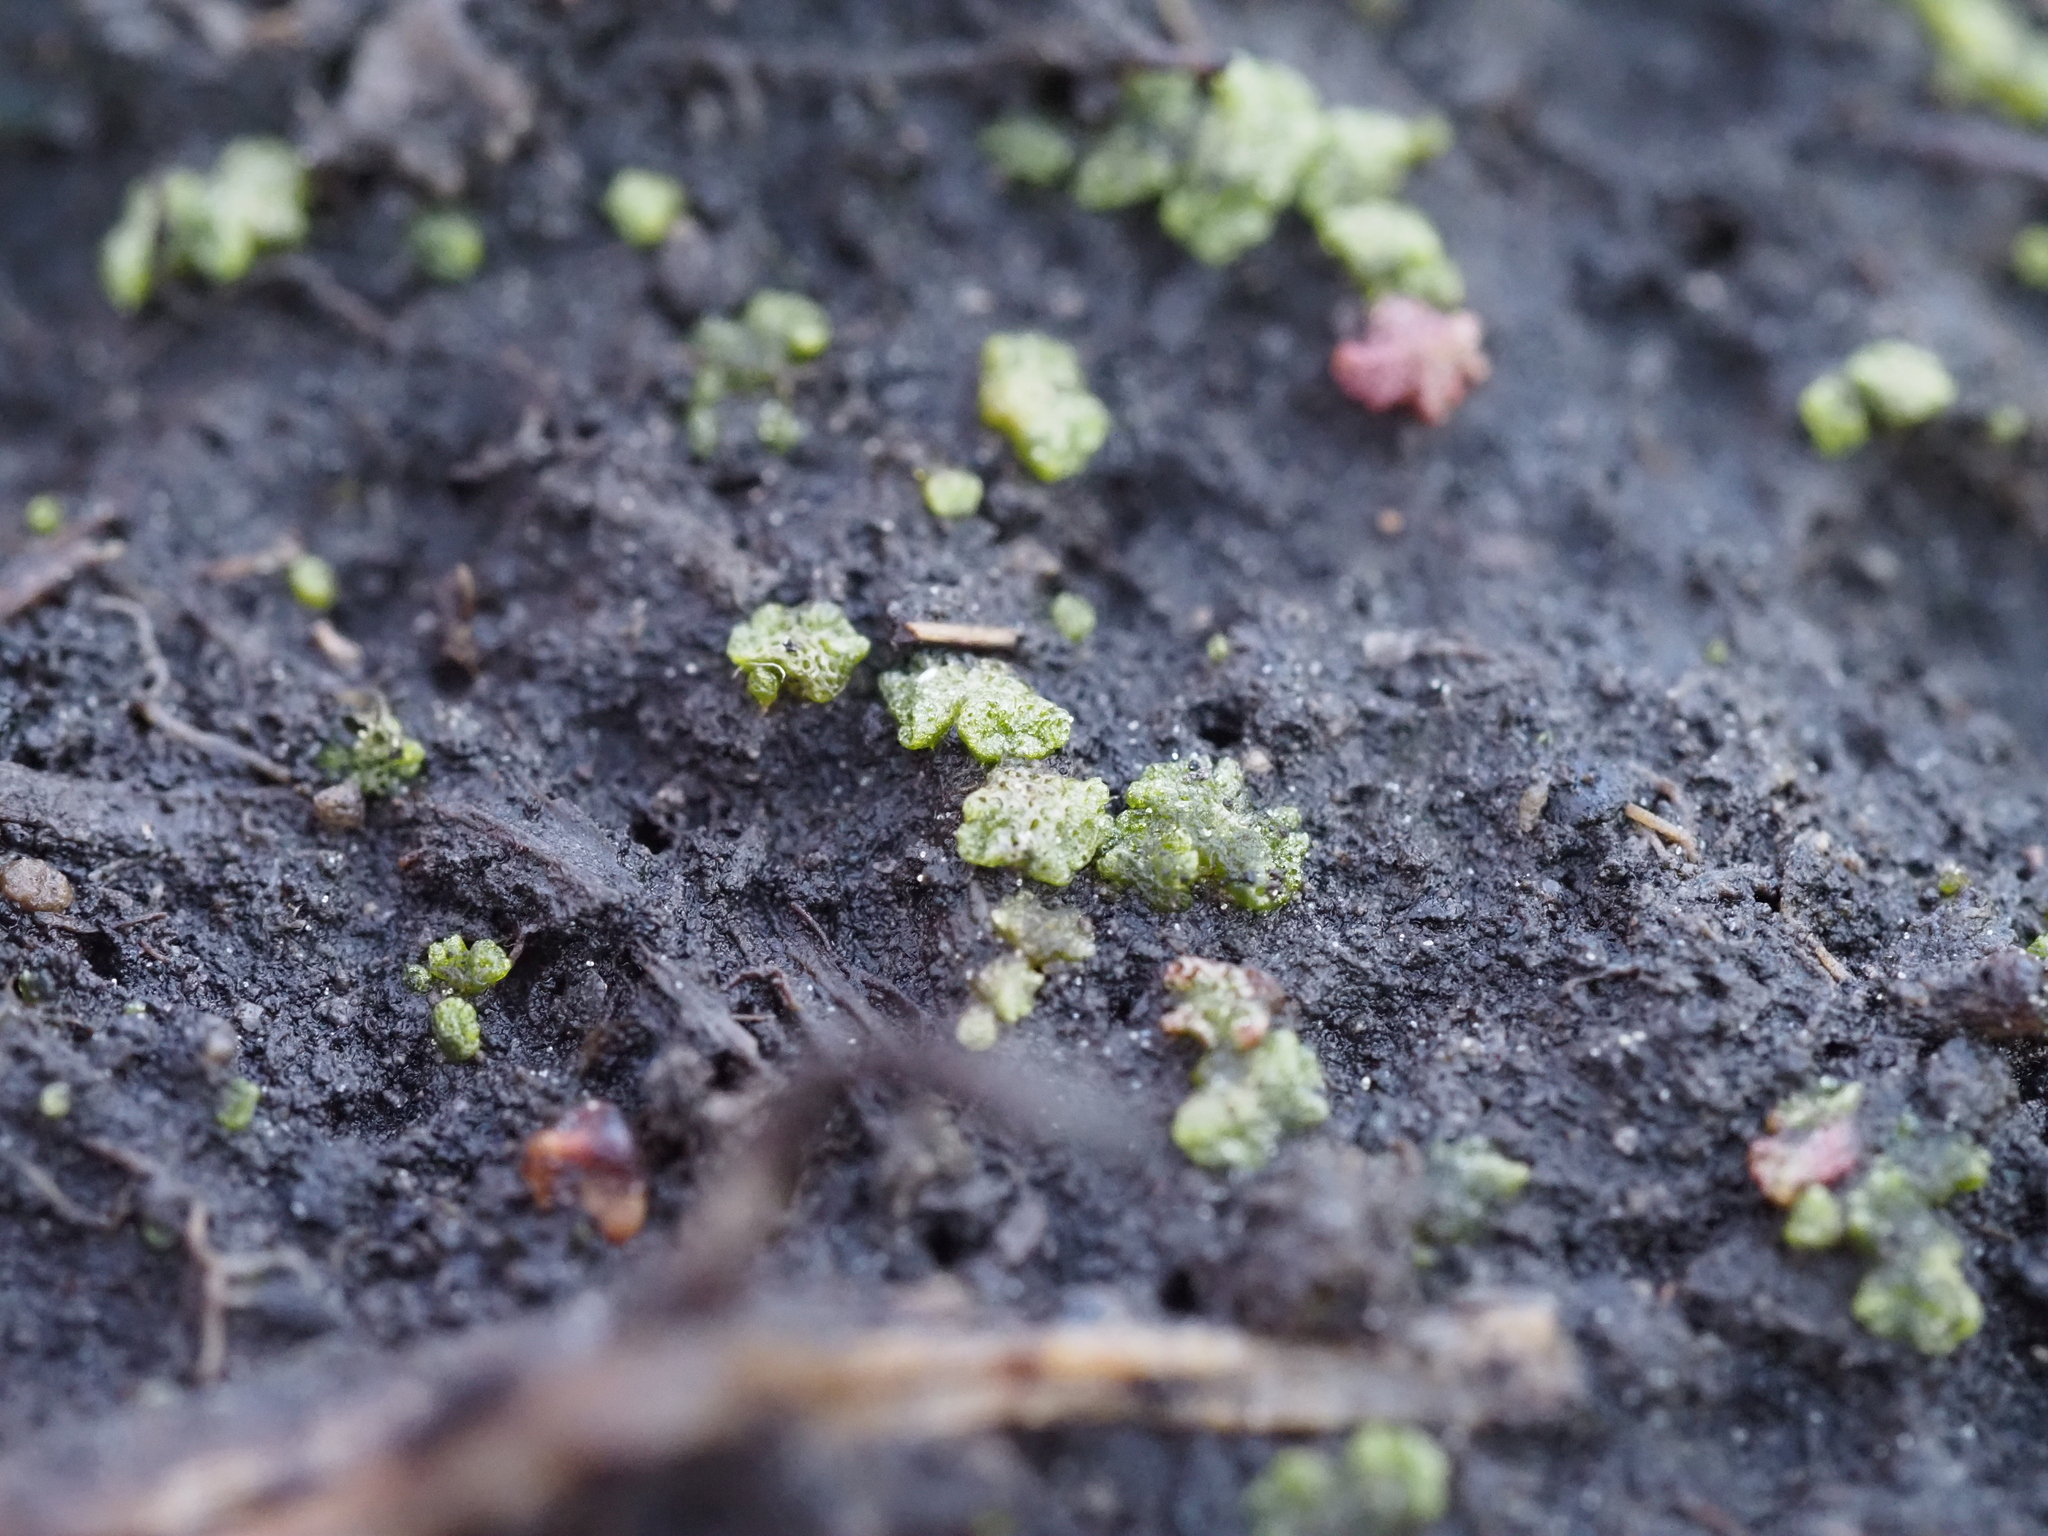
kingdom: Plantae
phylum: Marchantiophyta
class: Marchantiopsida
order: Marchantiales
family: Ricciaceae
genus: Riccia
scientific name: Riccia cavernosa
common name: Cavernous crystalwort
